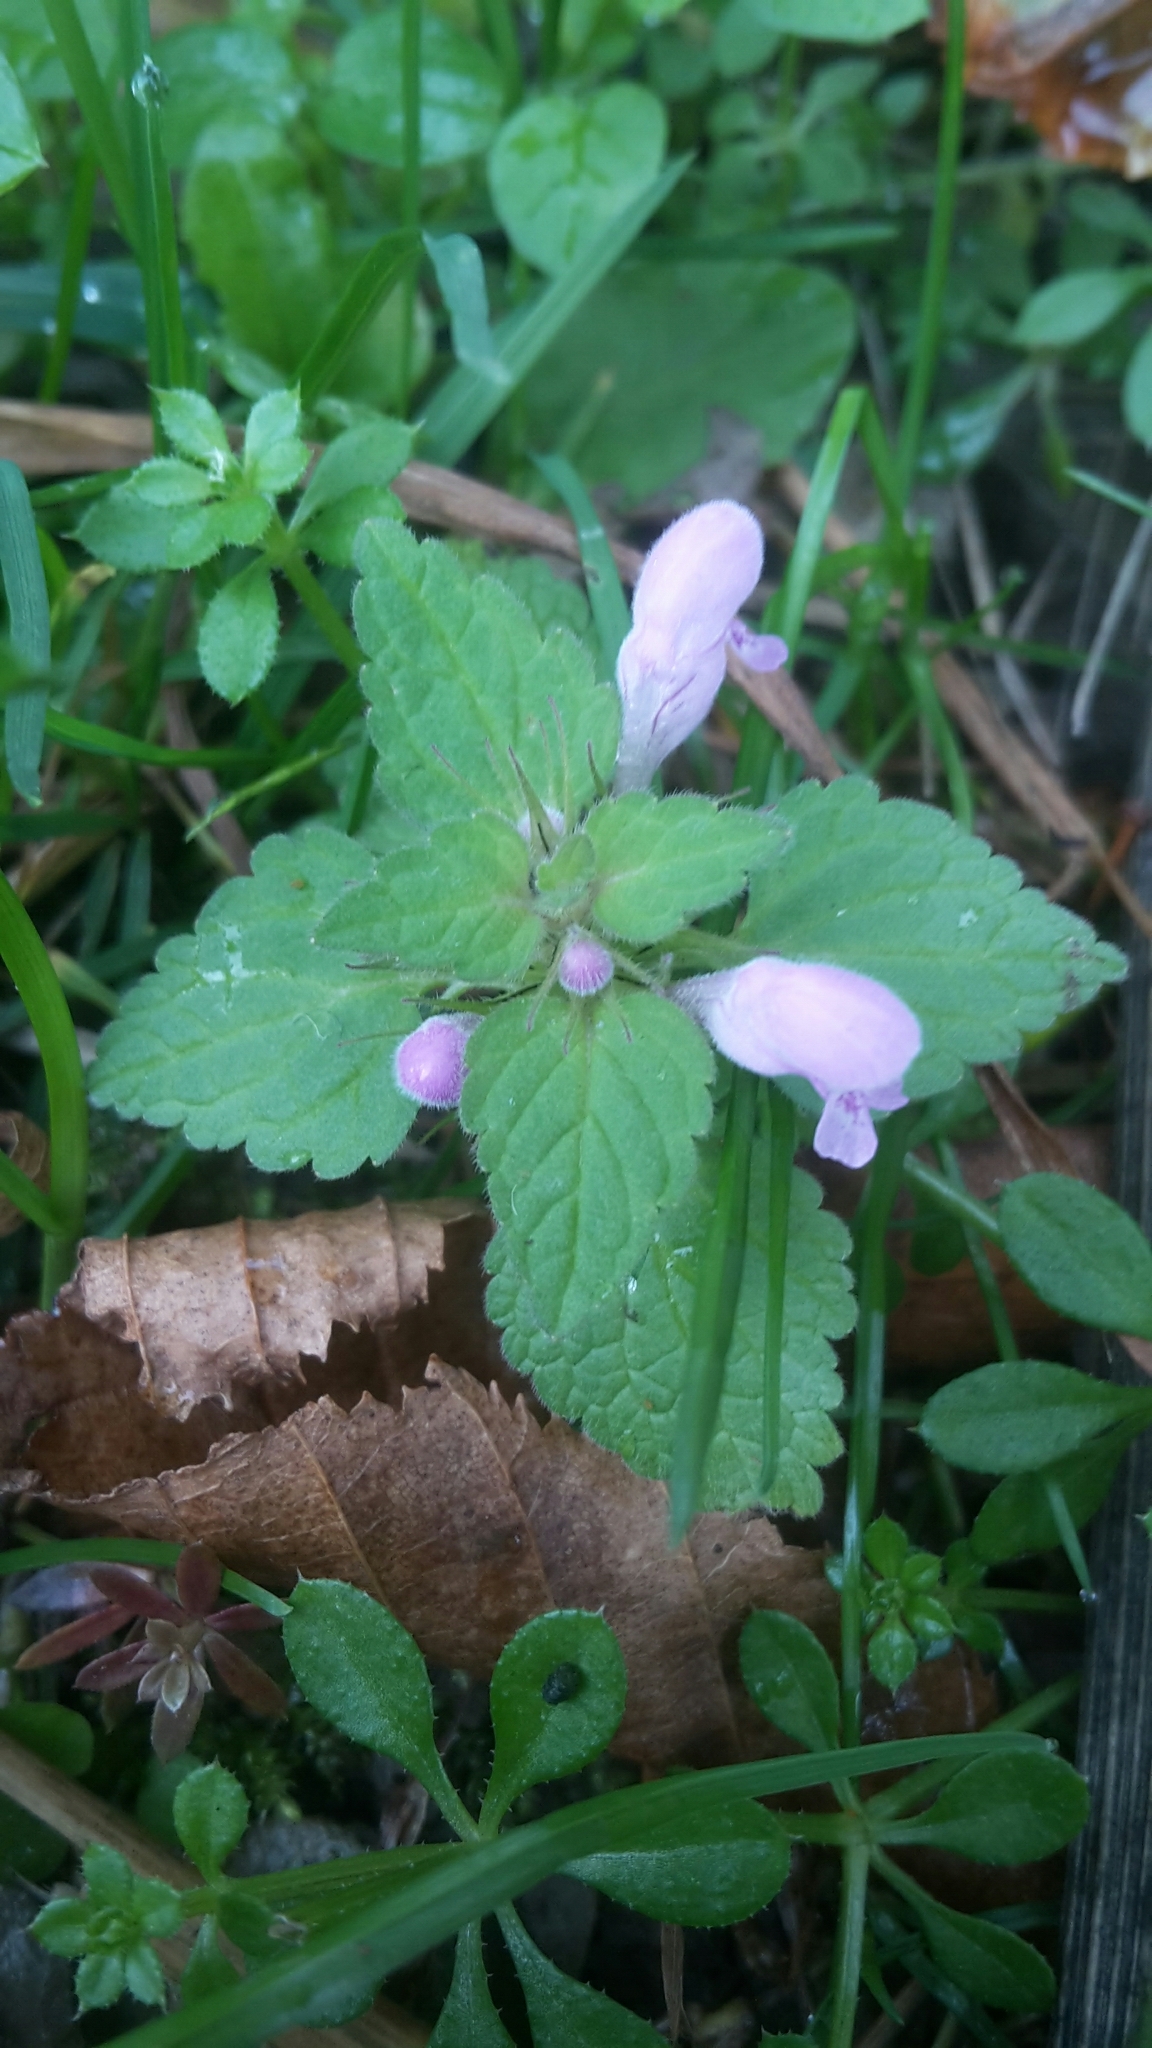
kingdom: Plantae
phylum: Tracheophyta
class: Magnoliopsida
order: Lamiales
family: Lamiaceae
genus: Lamium
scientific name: Lamium purpureum
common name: Red dead-nettle
